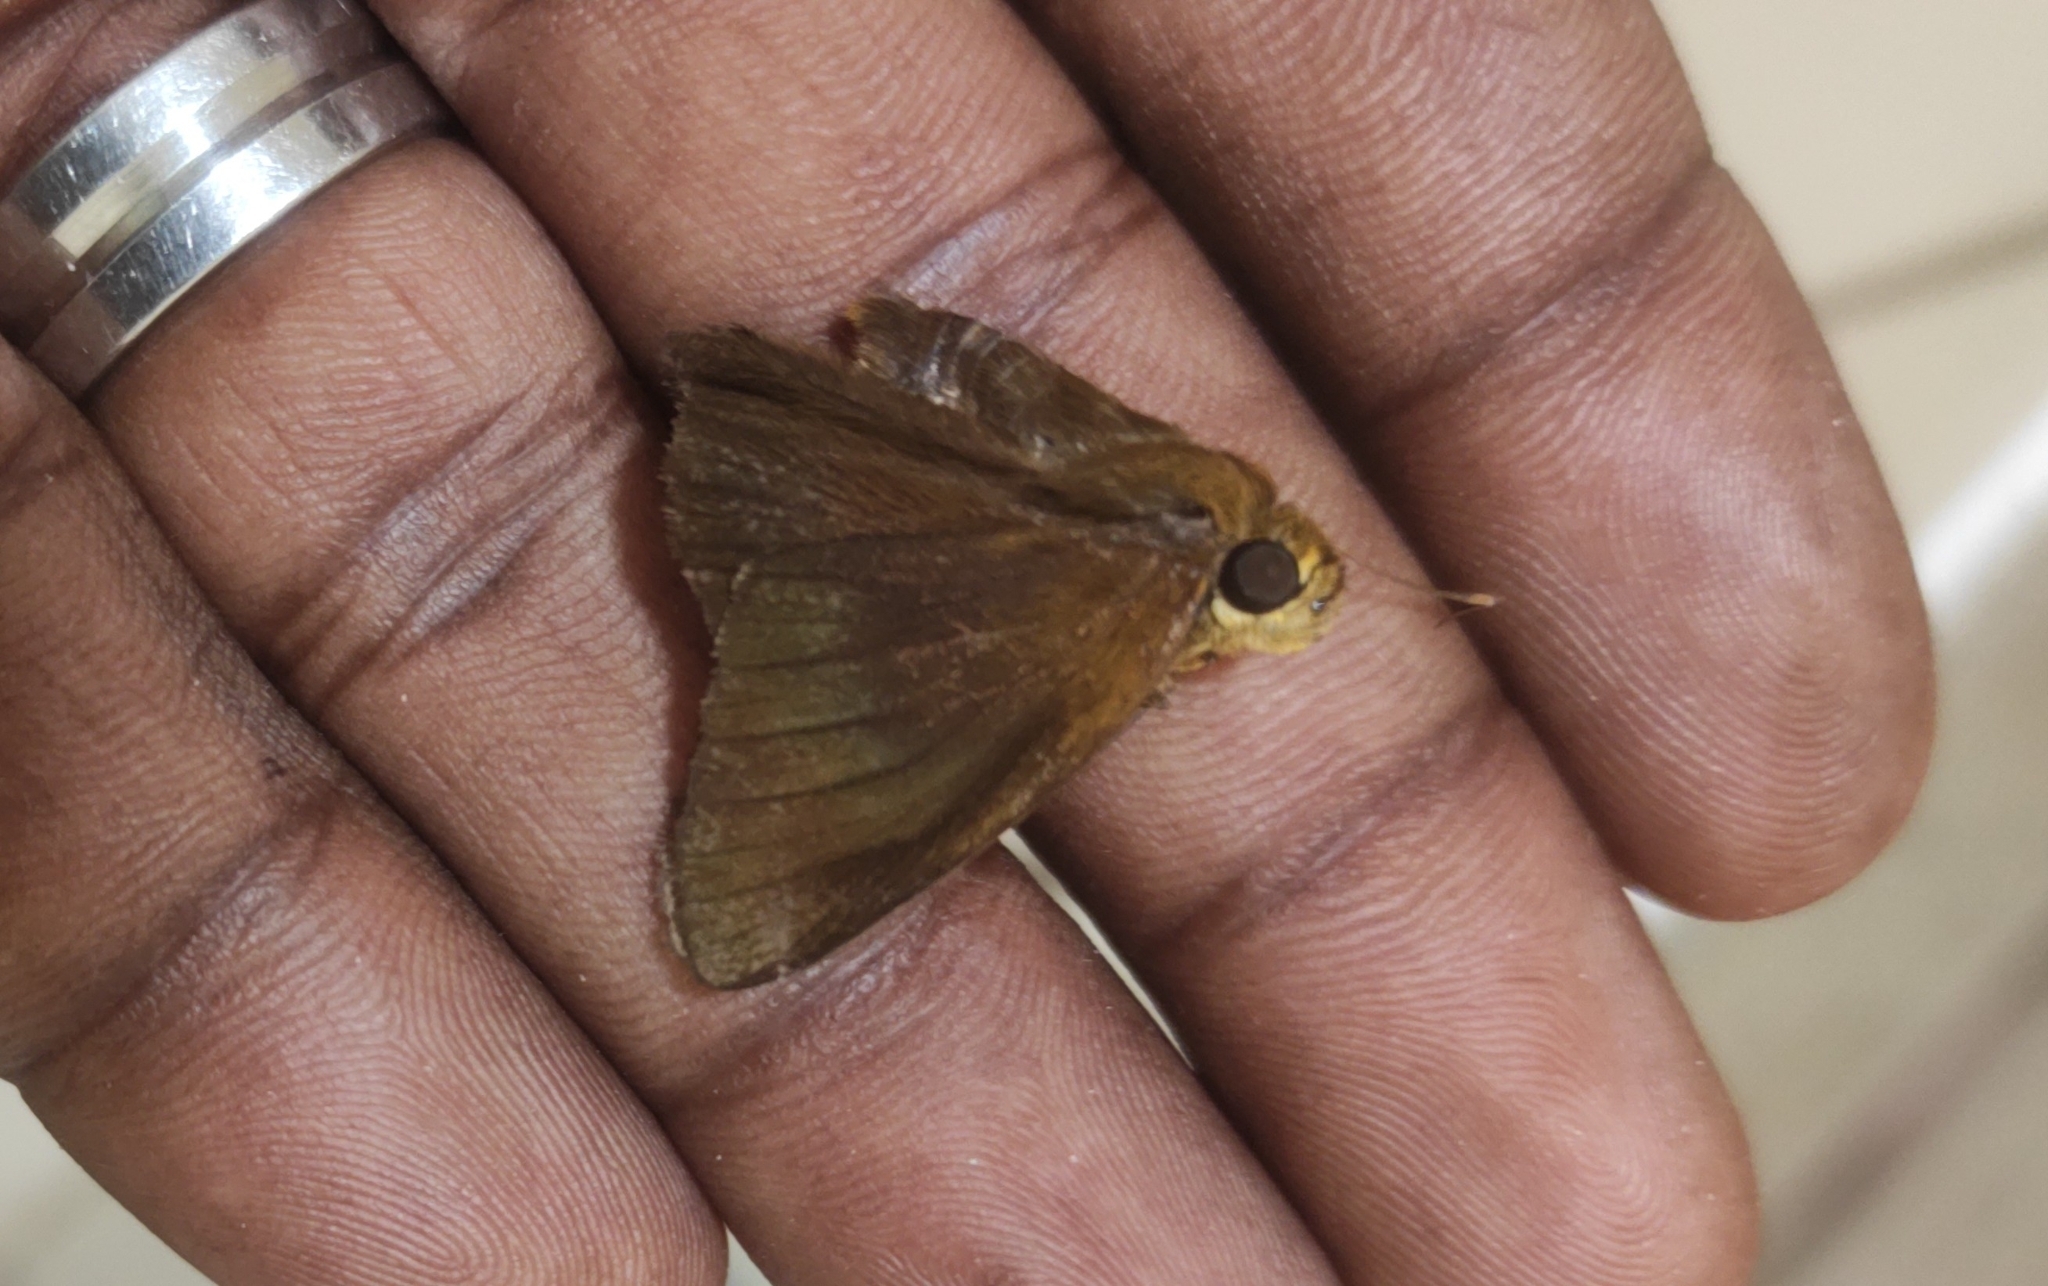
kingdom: Animalia
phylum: Arthropoda
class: Insecta
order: Lepidoptera
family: Hesperiidae
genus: Hasora
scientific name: Hasora badra
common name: Common awl
